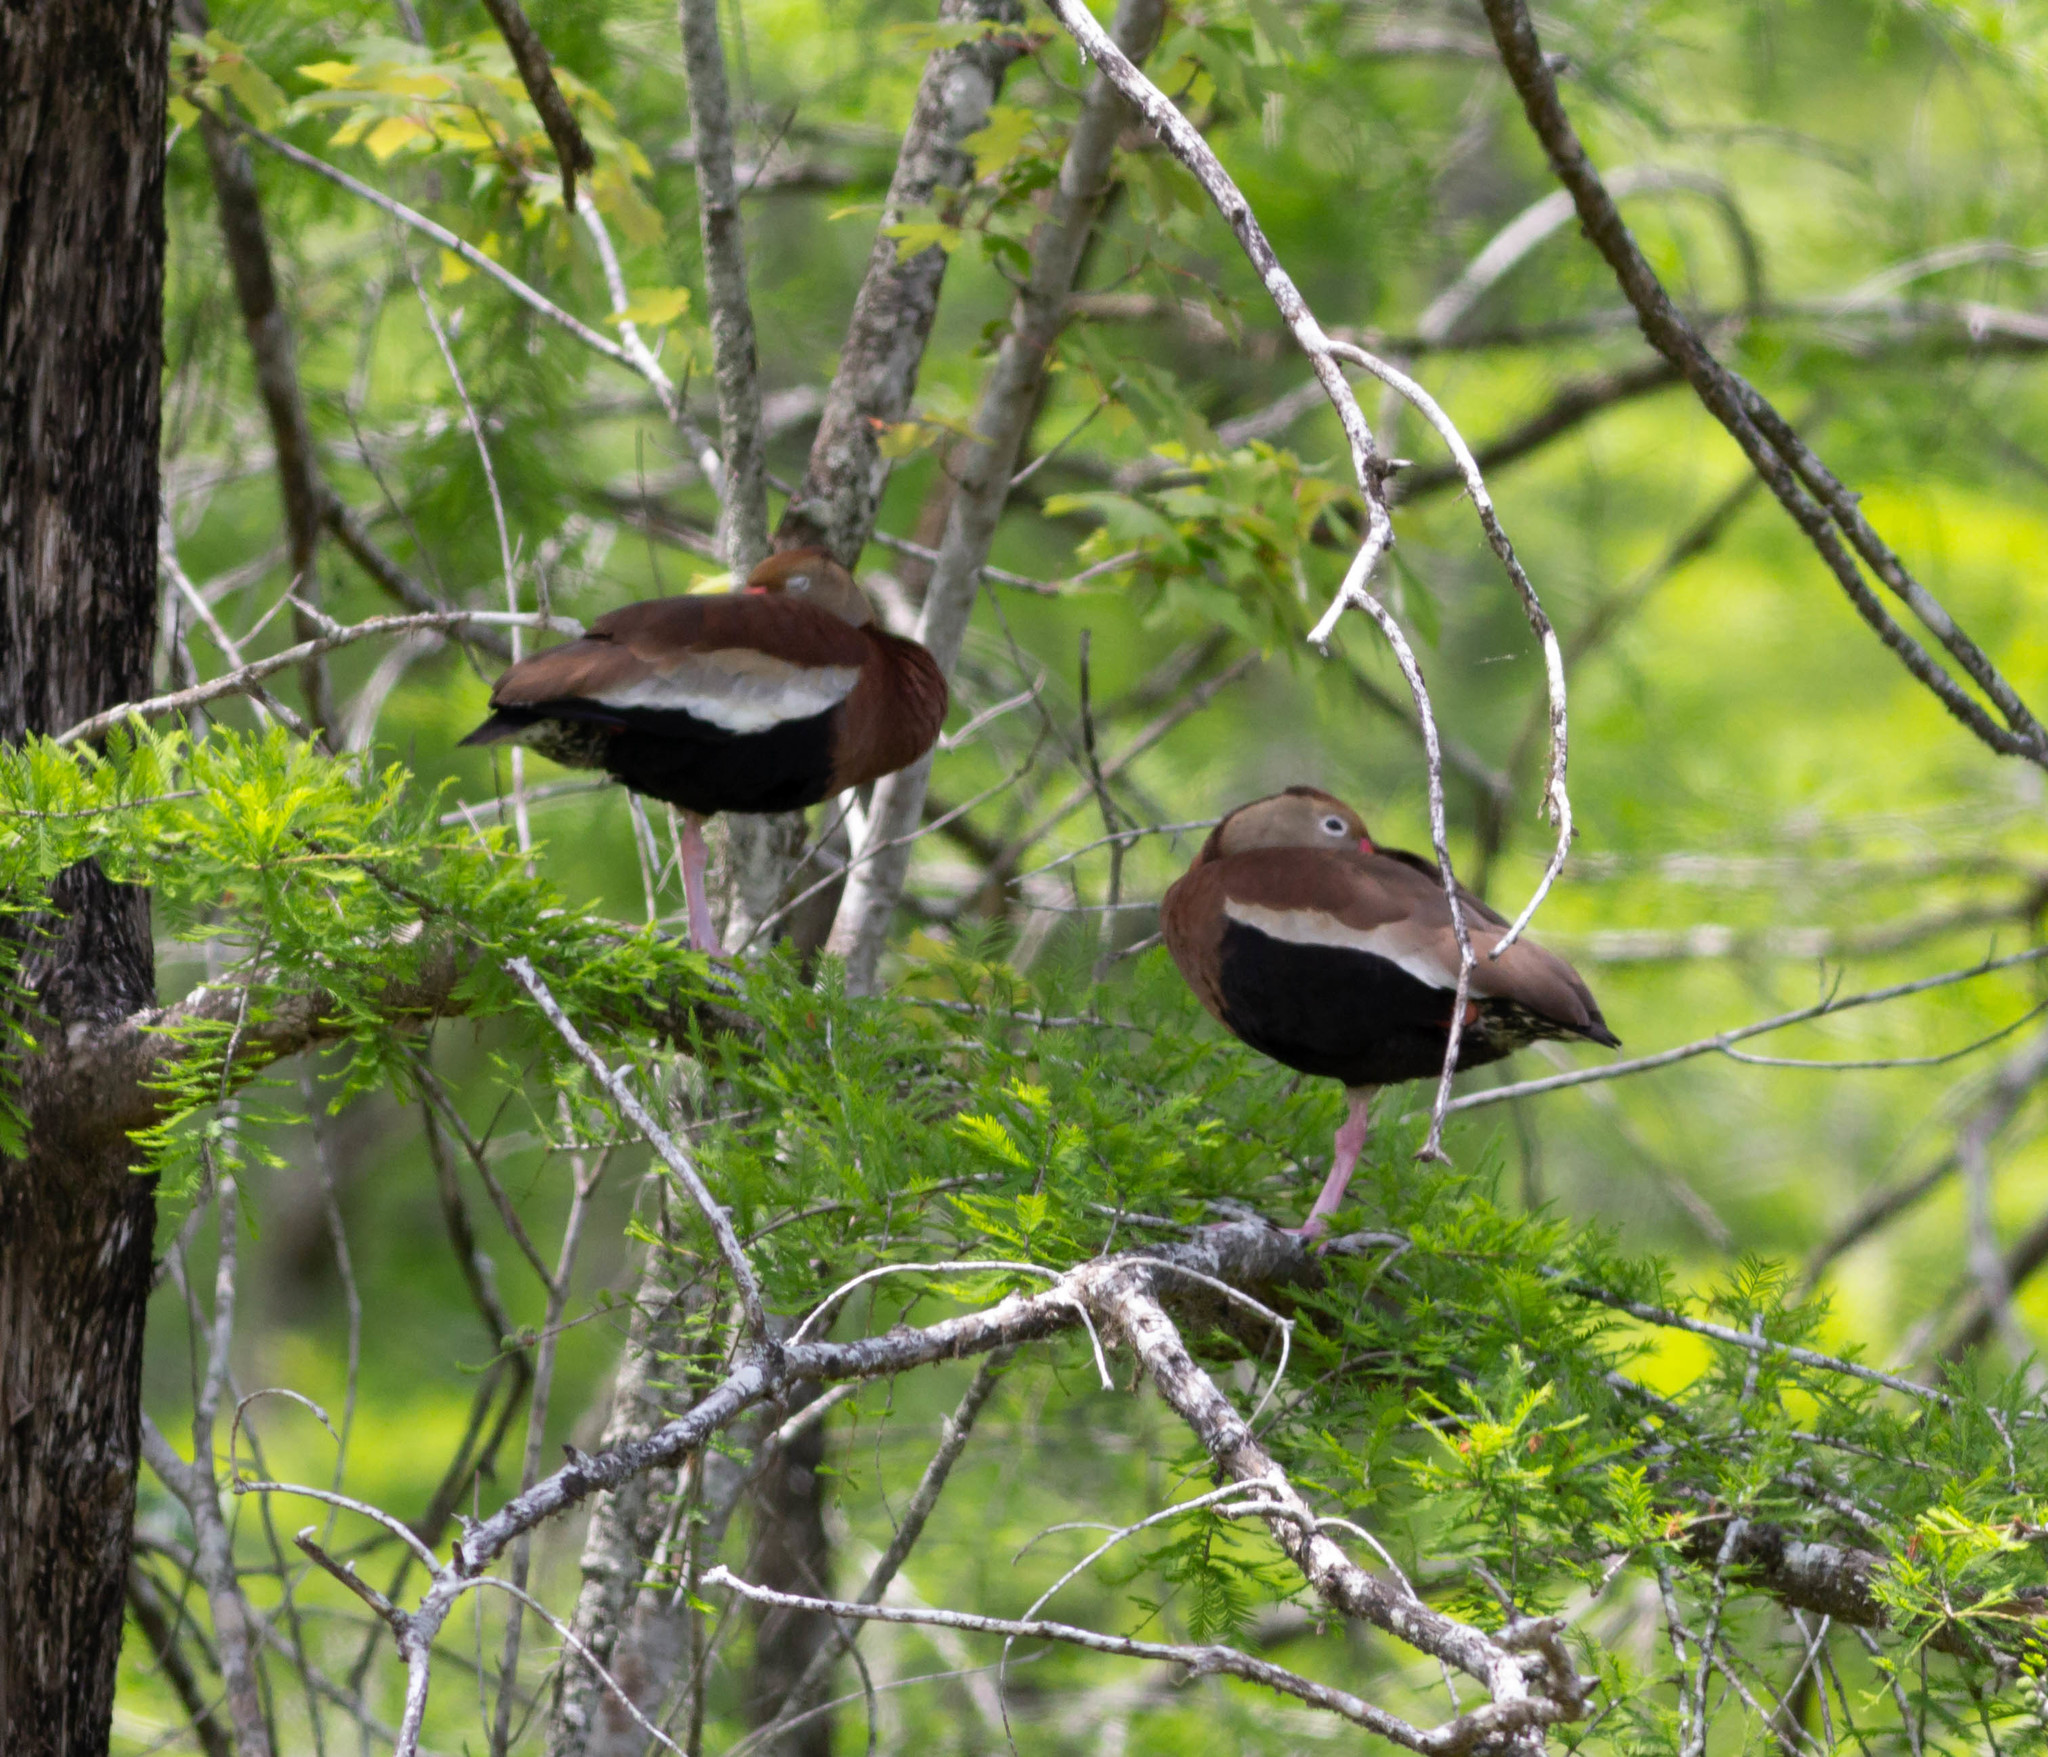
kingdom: Animalia
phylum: Chordata
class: Aves
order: Anseriformes
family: Anatidae
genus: Dendrocygna
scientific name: Dendrocygna autumnalis
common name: Black-bellied whistling duck
